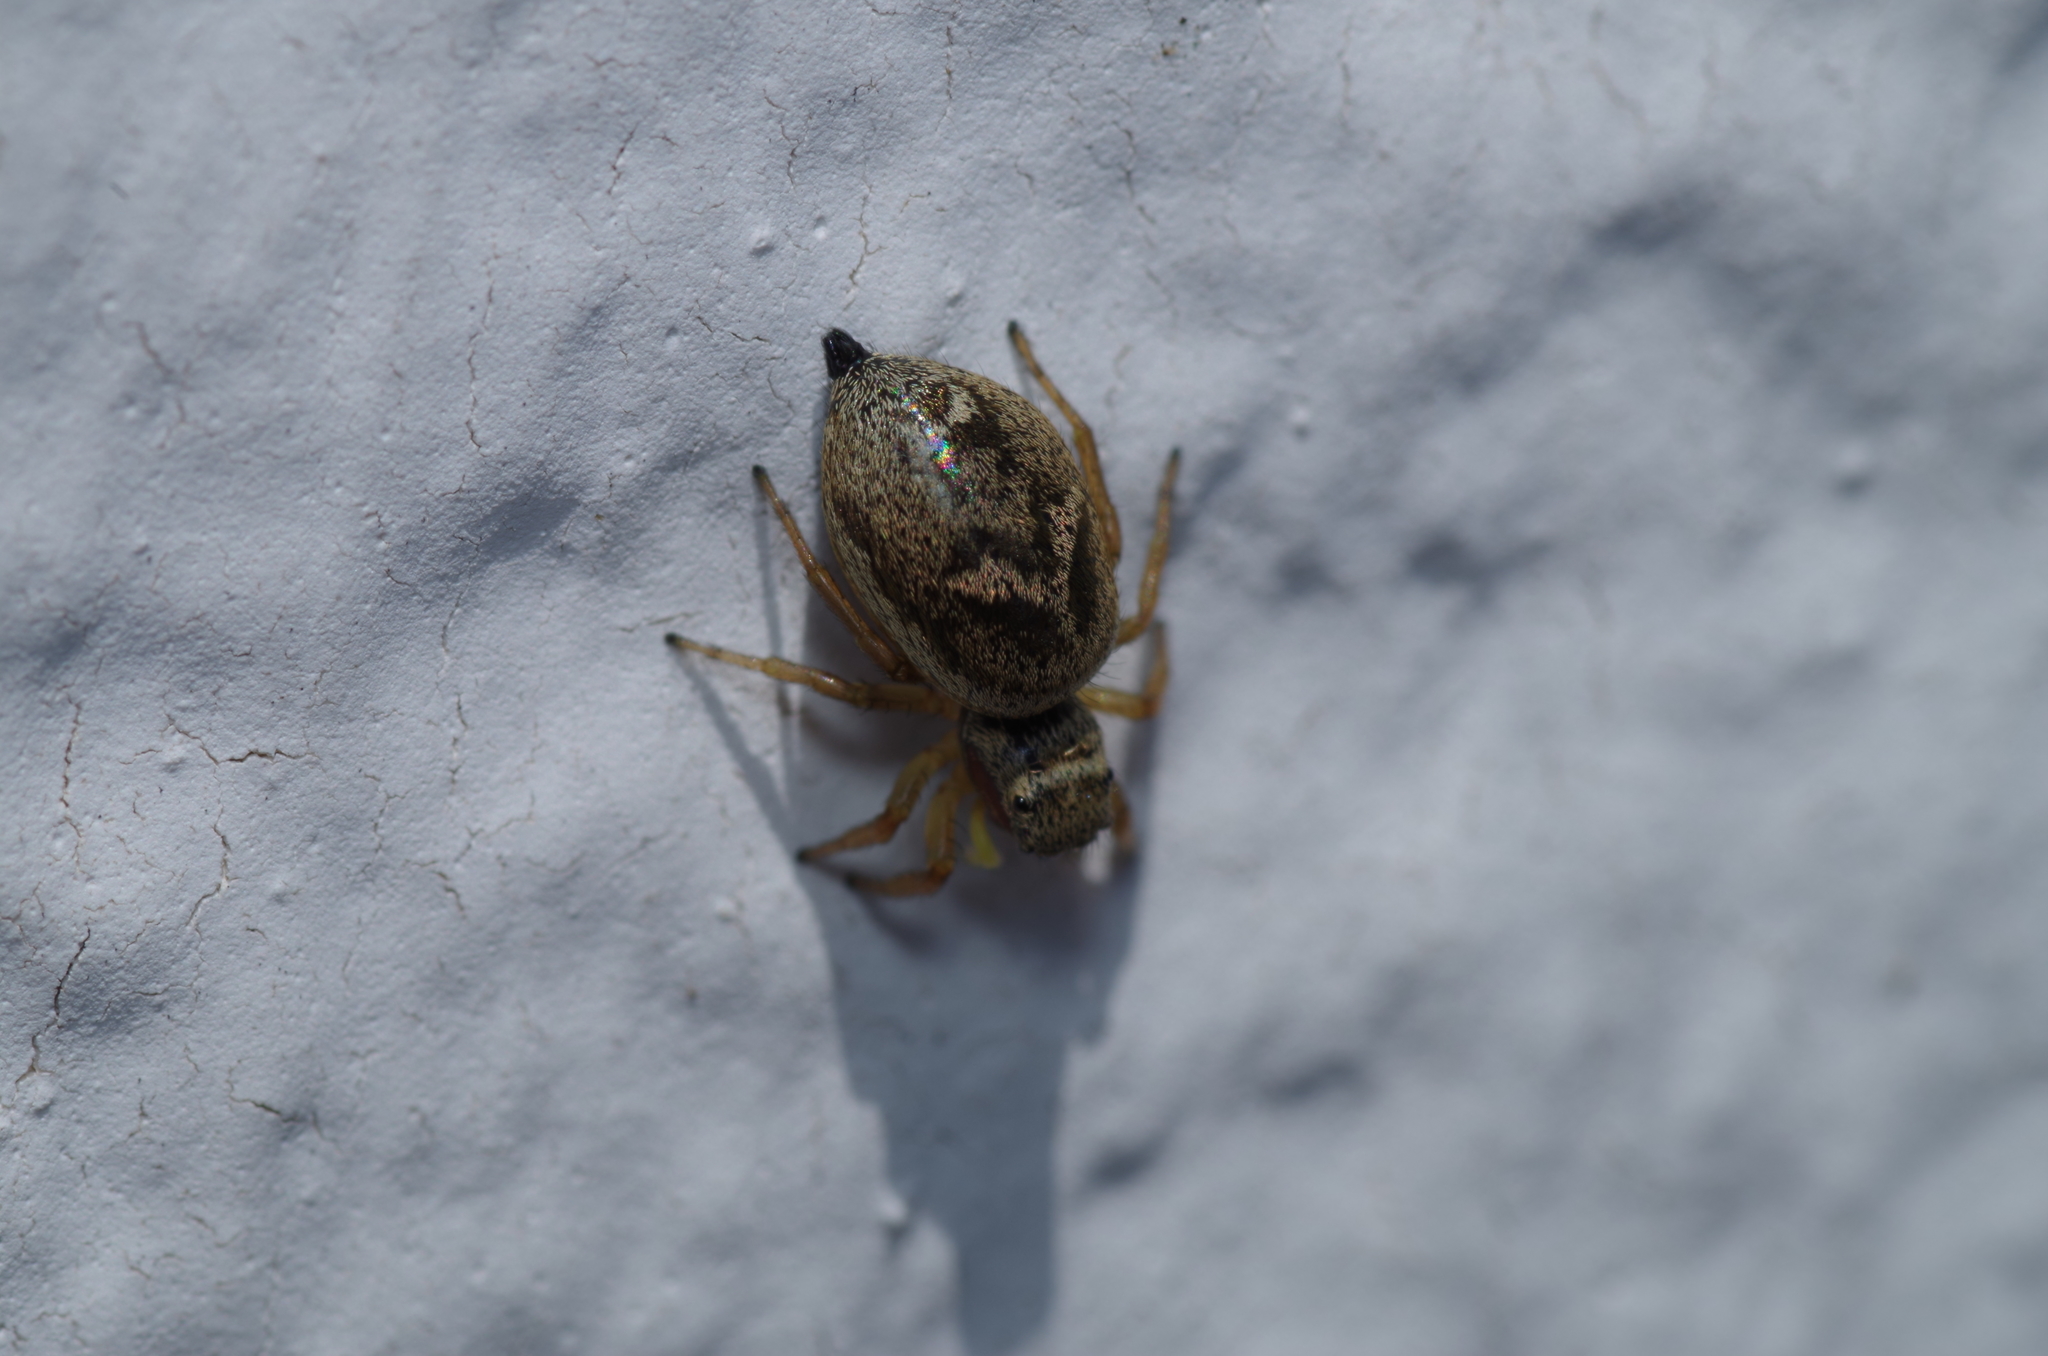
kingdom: Animalia
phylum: Arthropoda
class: Arachnida
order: Araneae
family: Salticidae
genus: Heliophanus
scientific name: Heliophanus tribulosus
